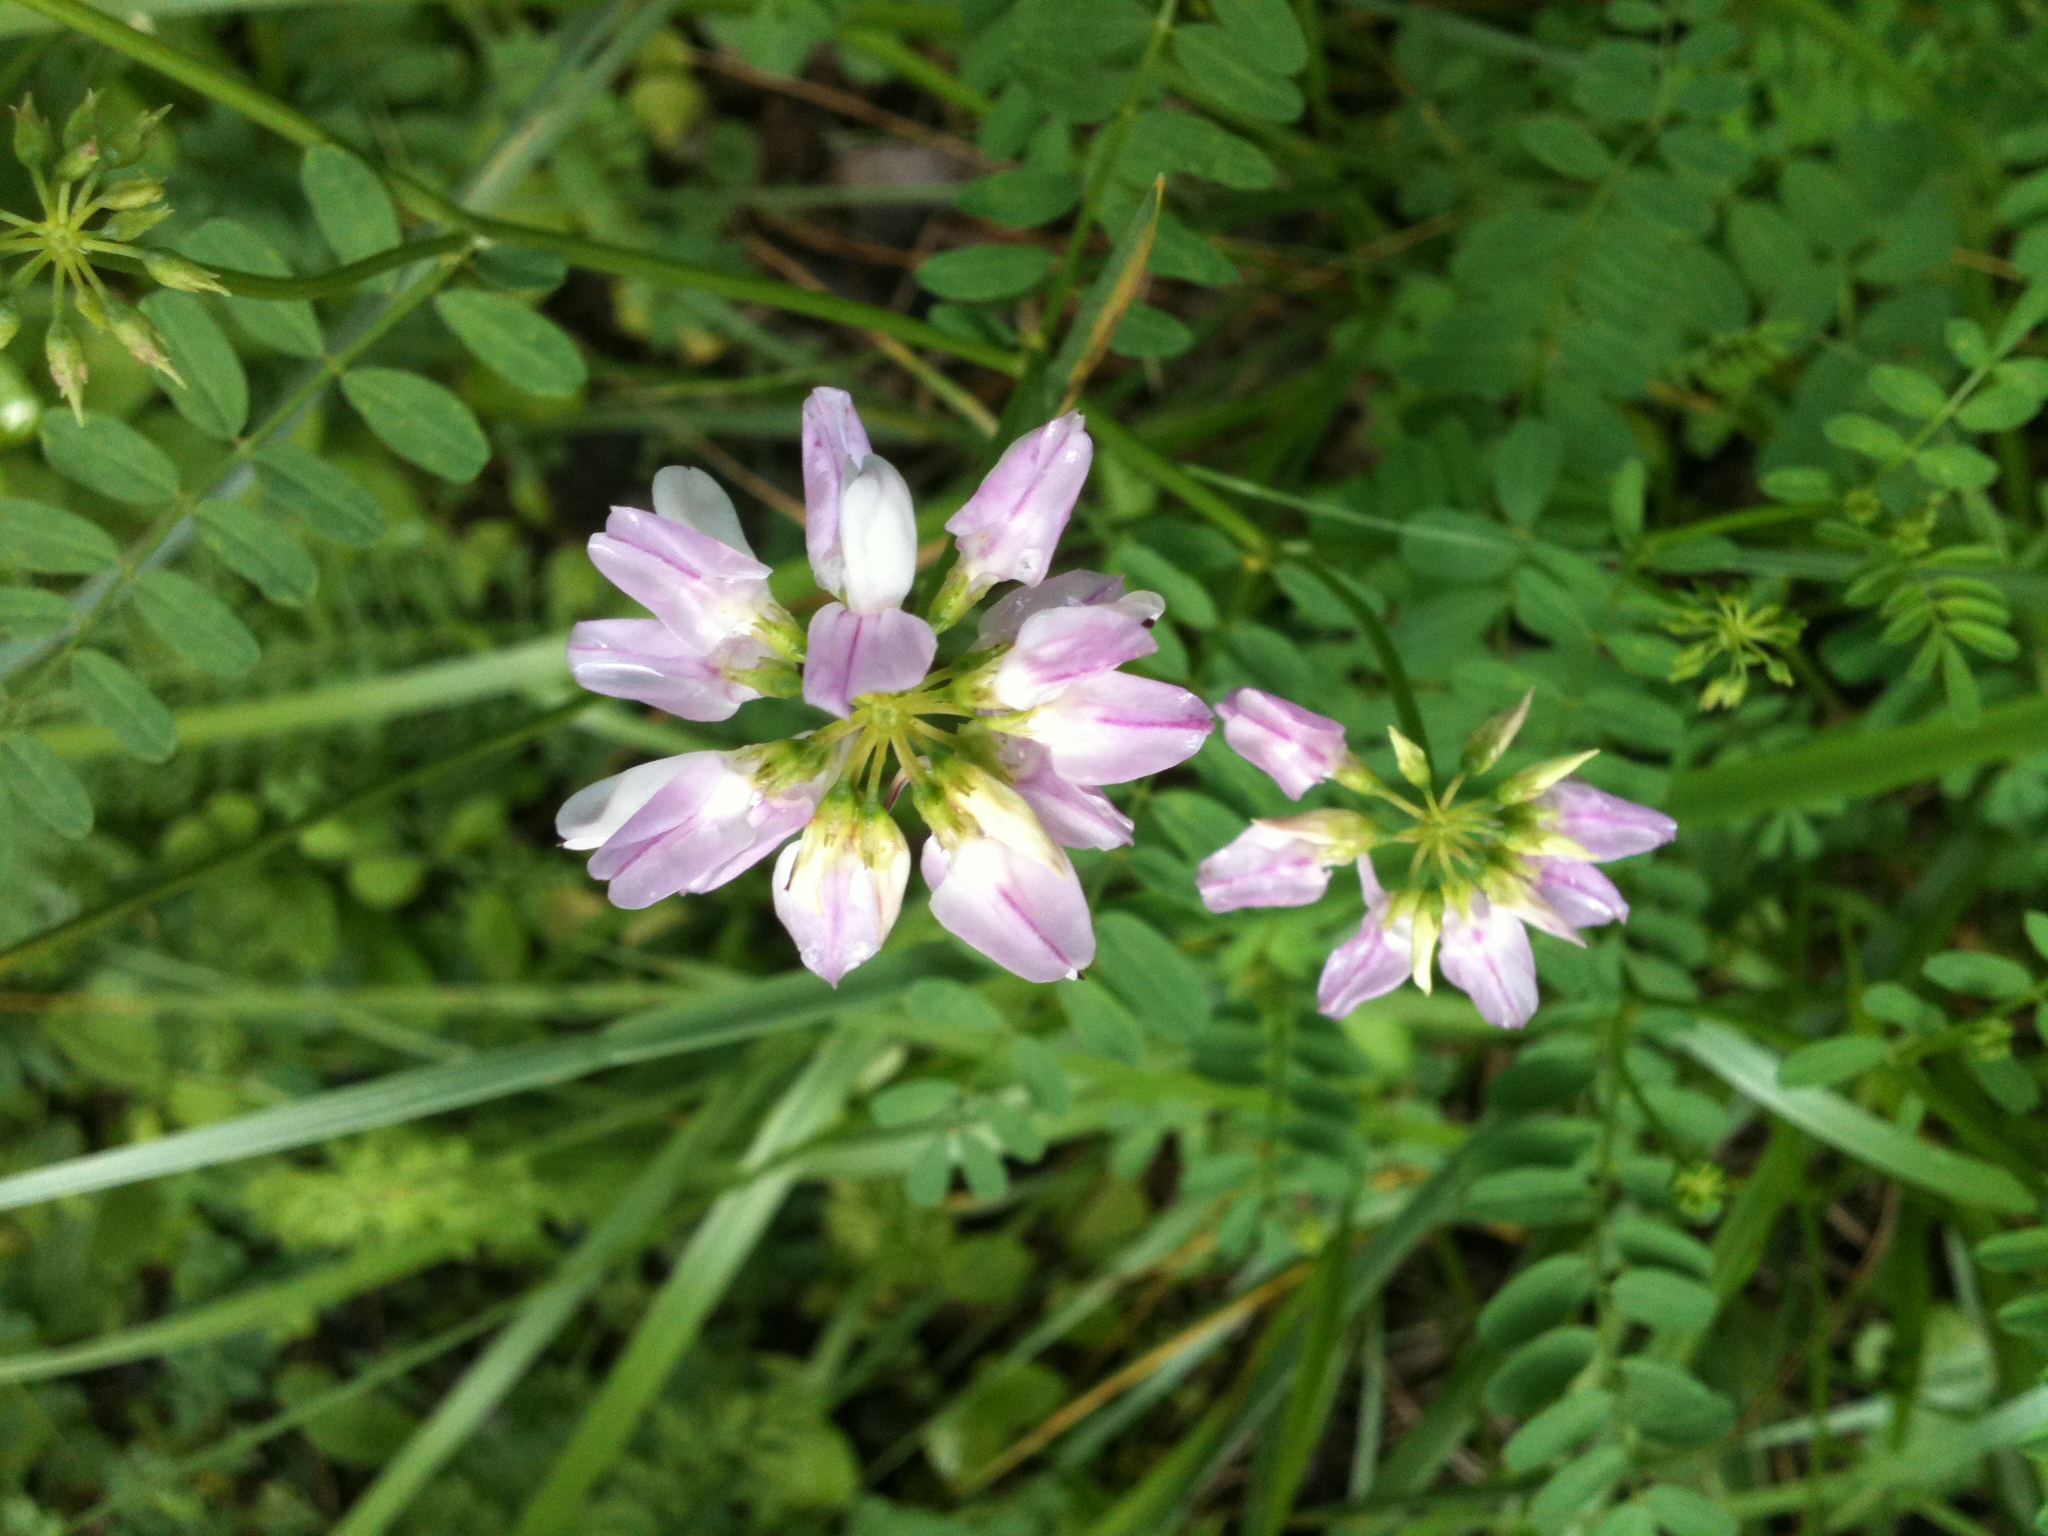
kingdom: Plantae
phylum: Tracheophyta
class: Magnoliopsida
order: Fabales
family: Fabaceae
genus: Coronilla
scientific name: Coronilla varia
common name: Crownvetch
